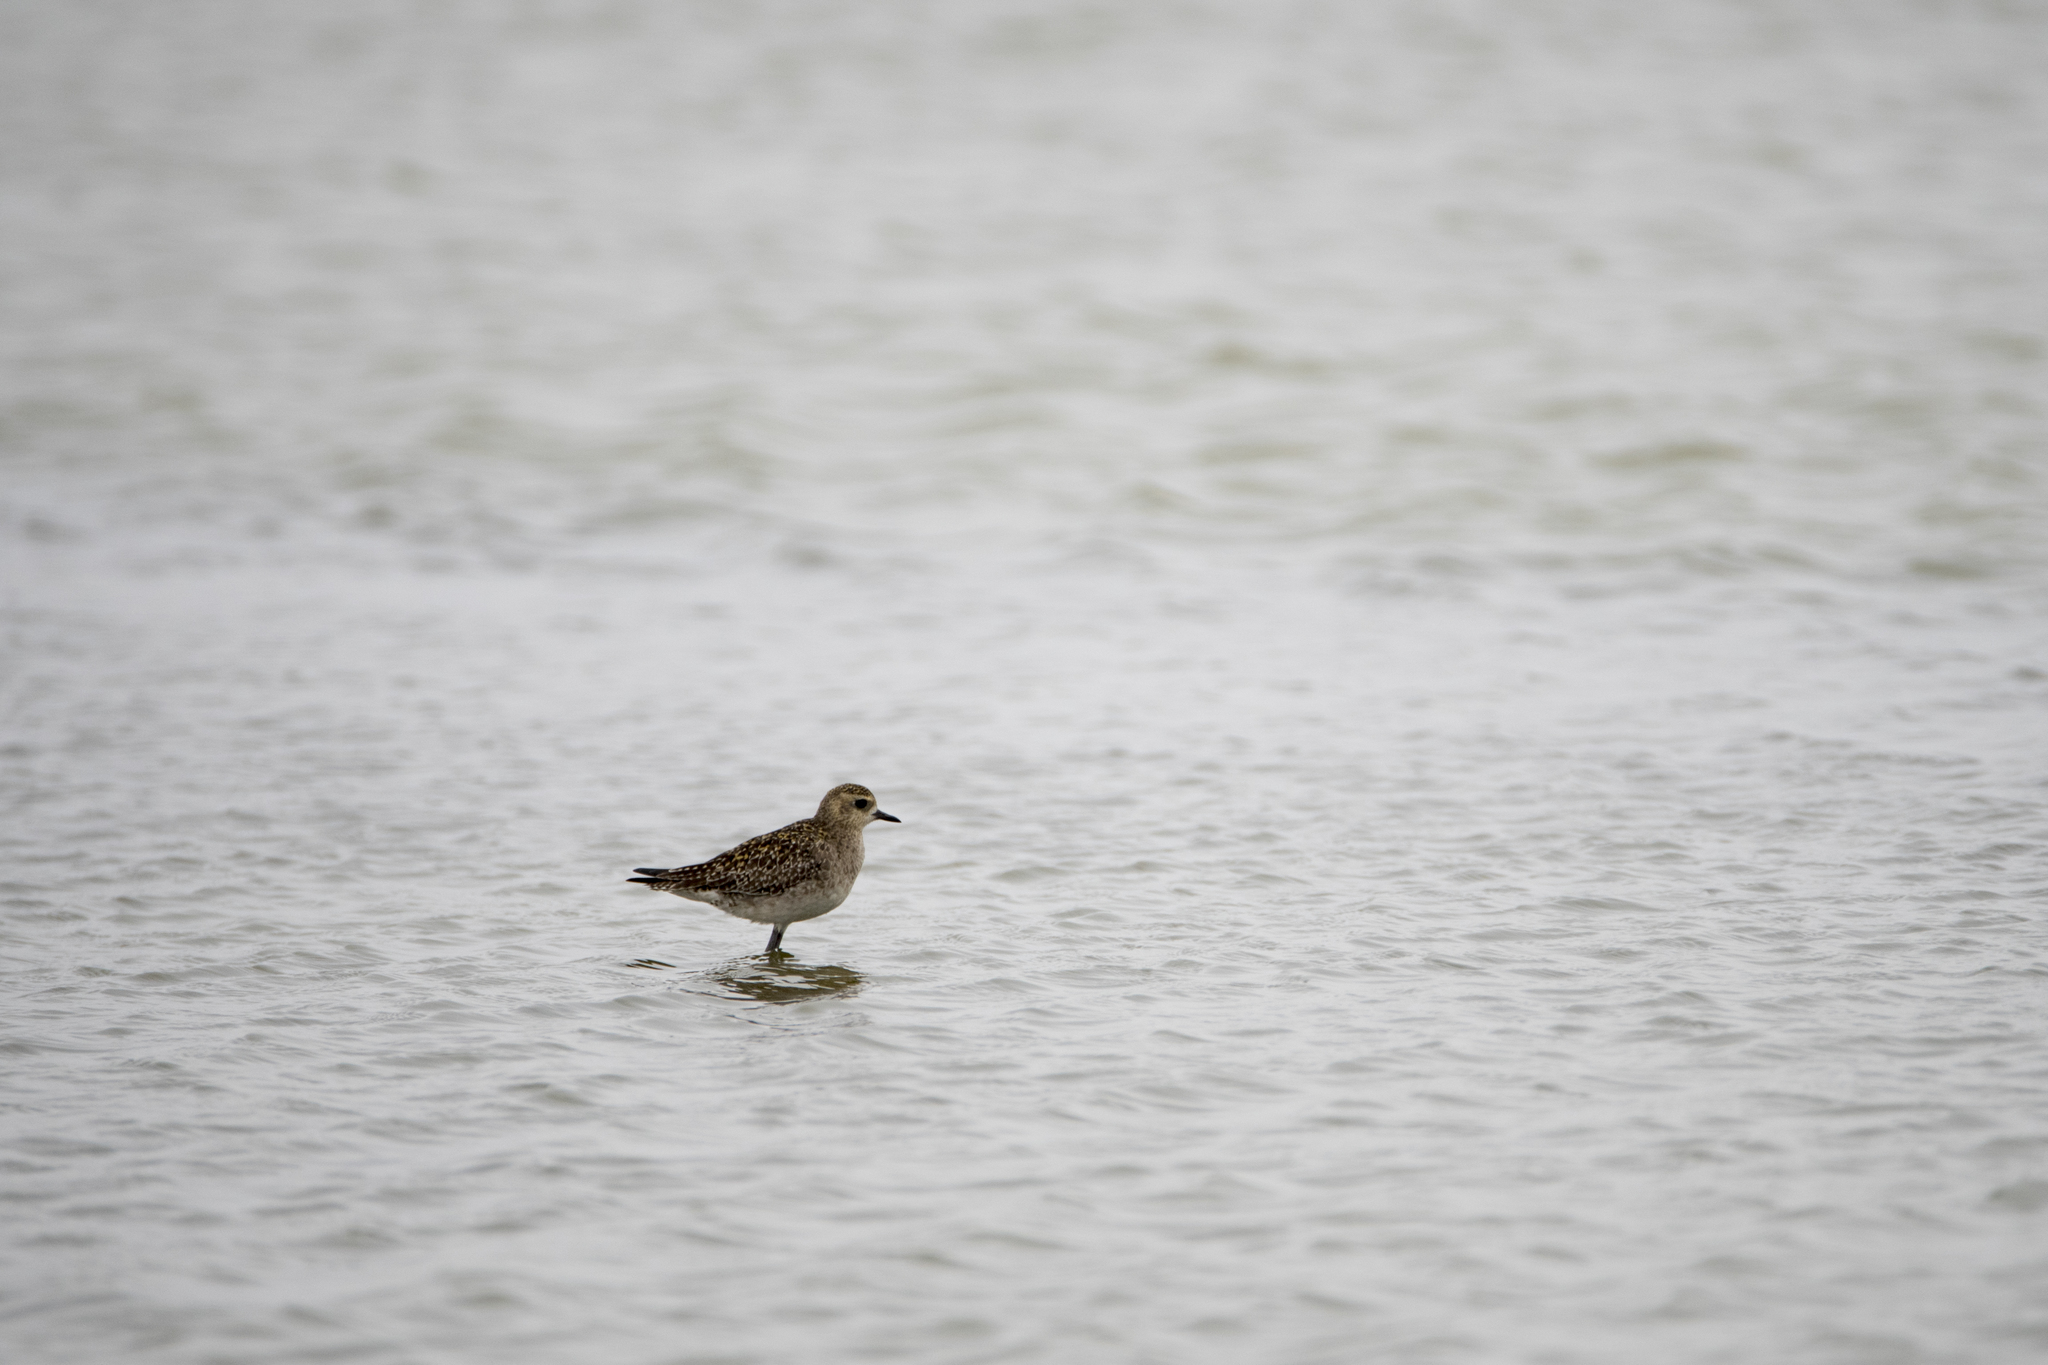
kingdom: Animalia
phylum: Chordata
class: Aves
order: Charadriiformes
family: Charadriidae
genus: Pluvialis
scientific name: Pluvialis fulva
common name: Pacific golden plover
